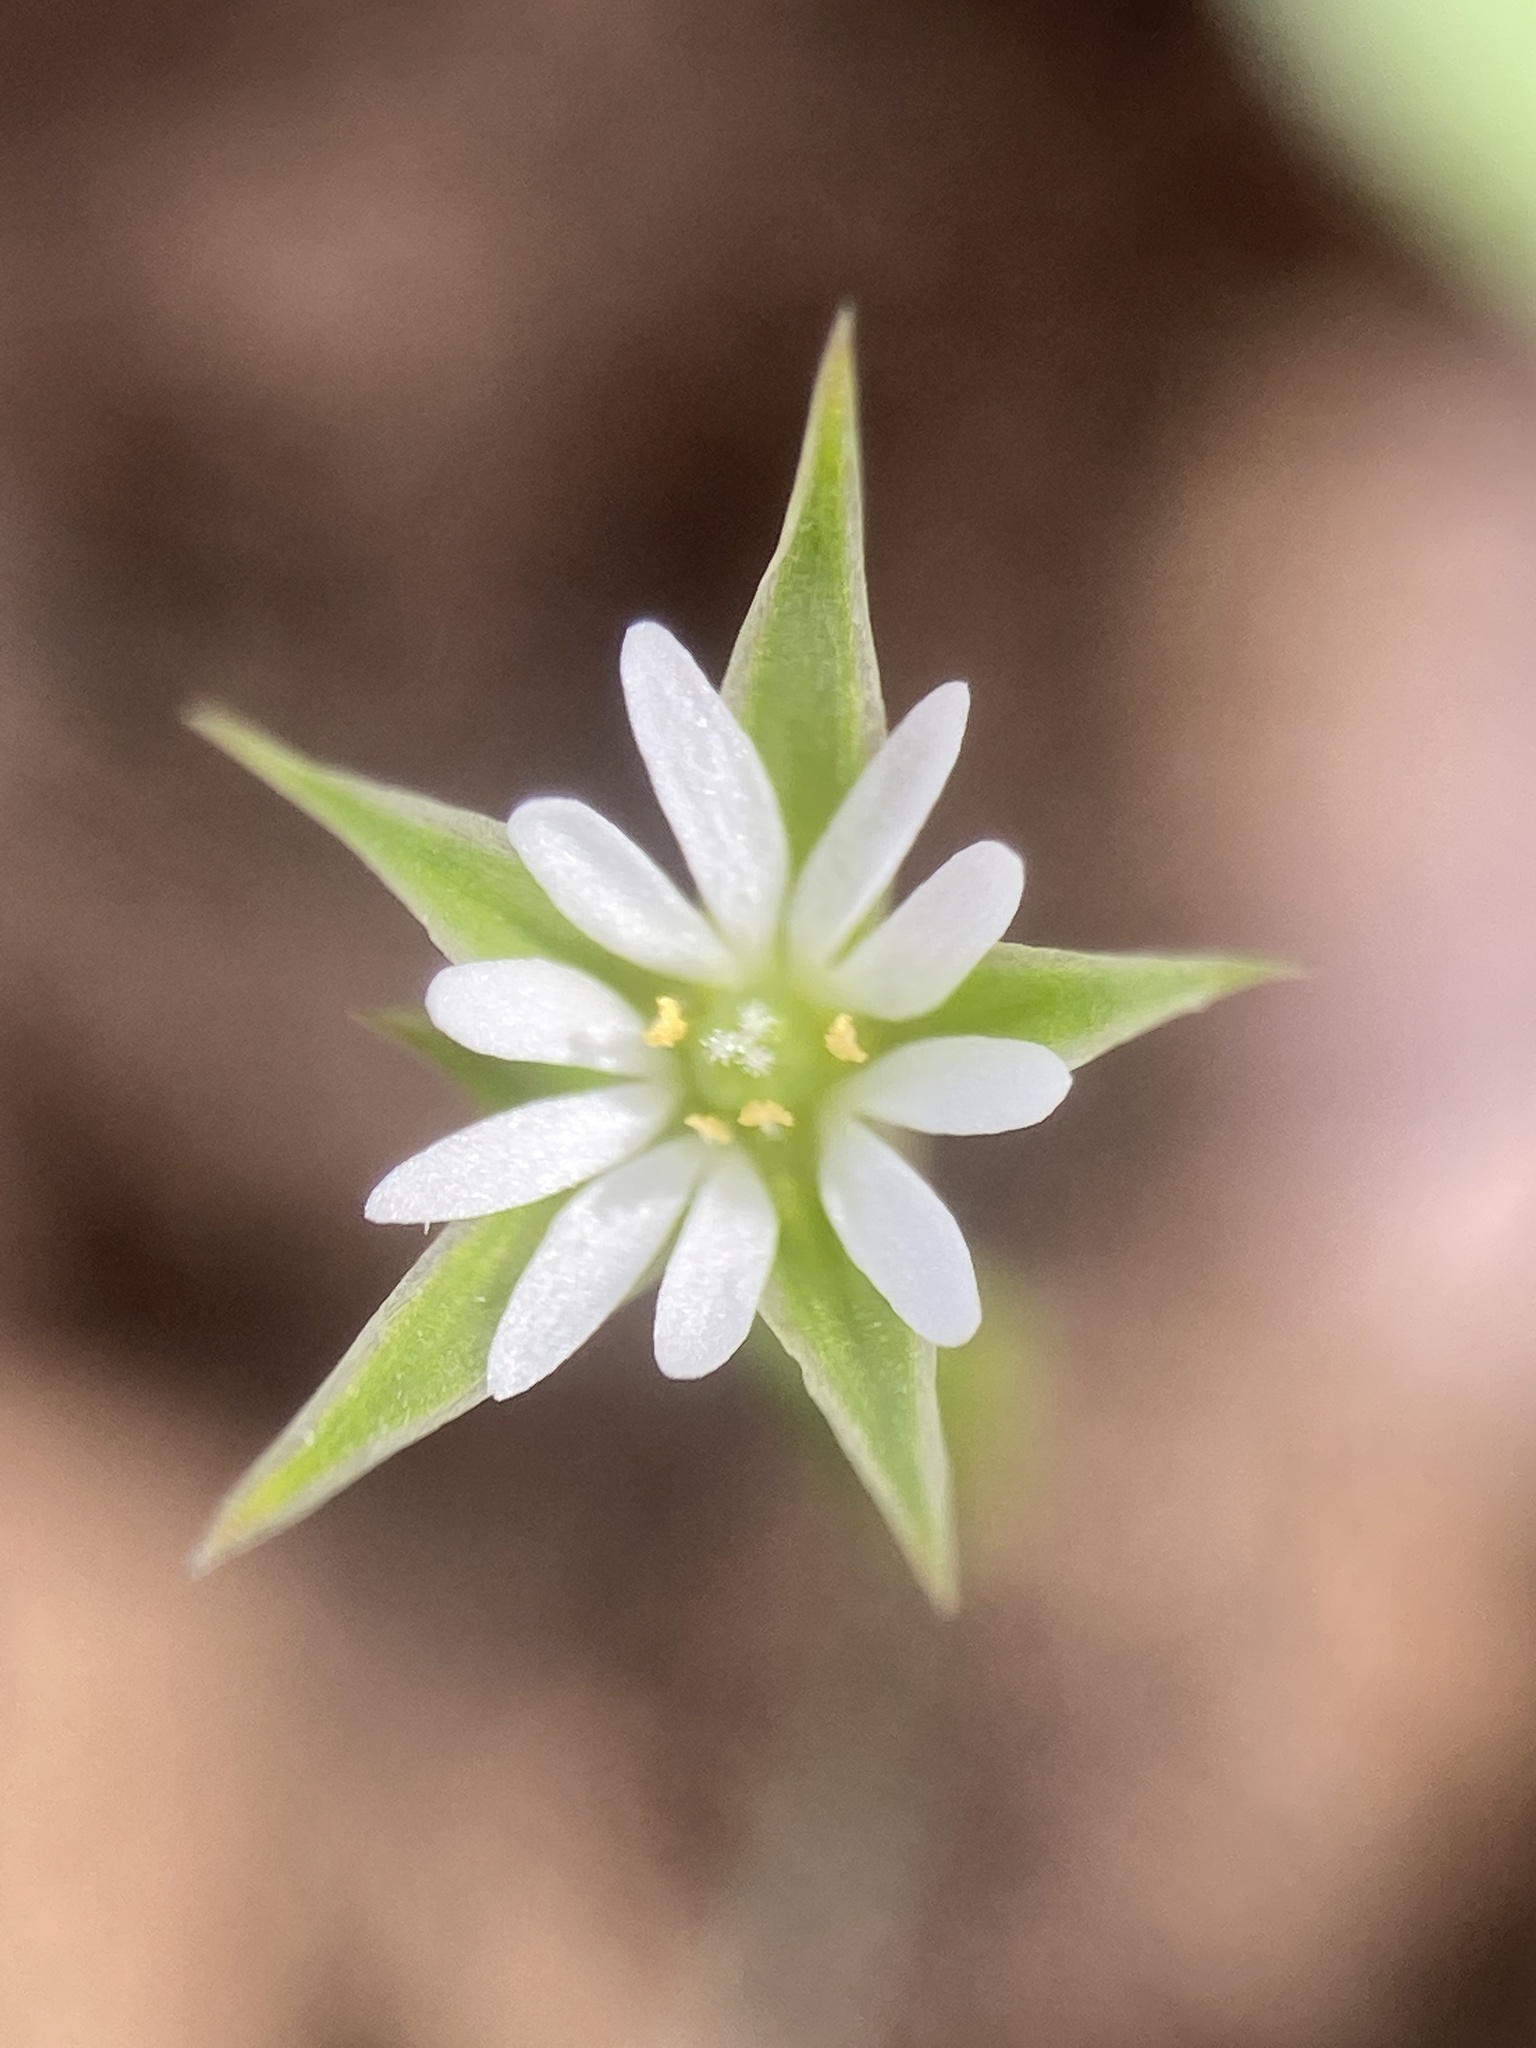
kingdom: Plantae
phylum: Tracheophyta
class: Magnoliopsida
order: Caryophyllales
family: Caryophyllaceae
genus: Stellaria
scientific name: Stellaria nitens
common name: Shining starwort
